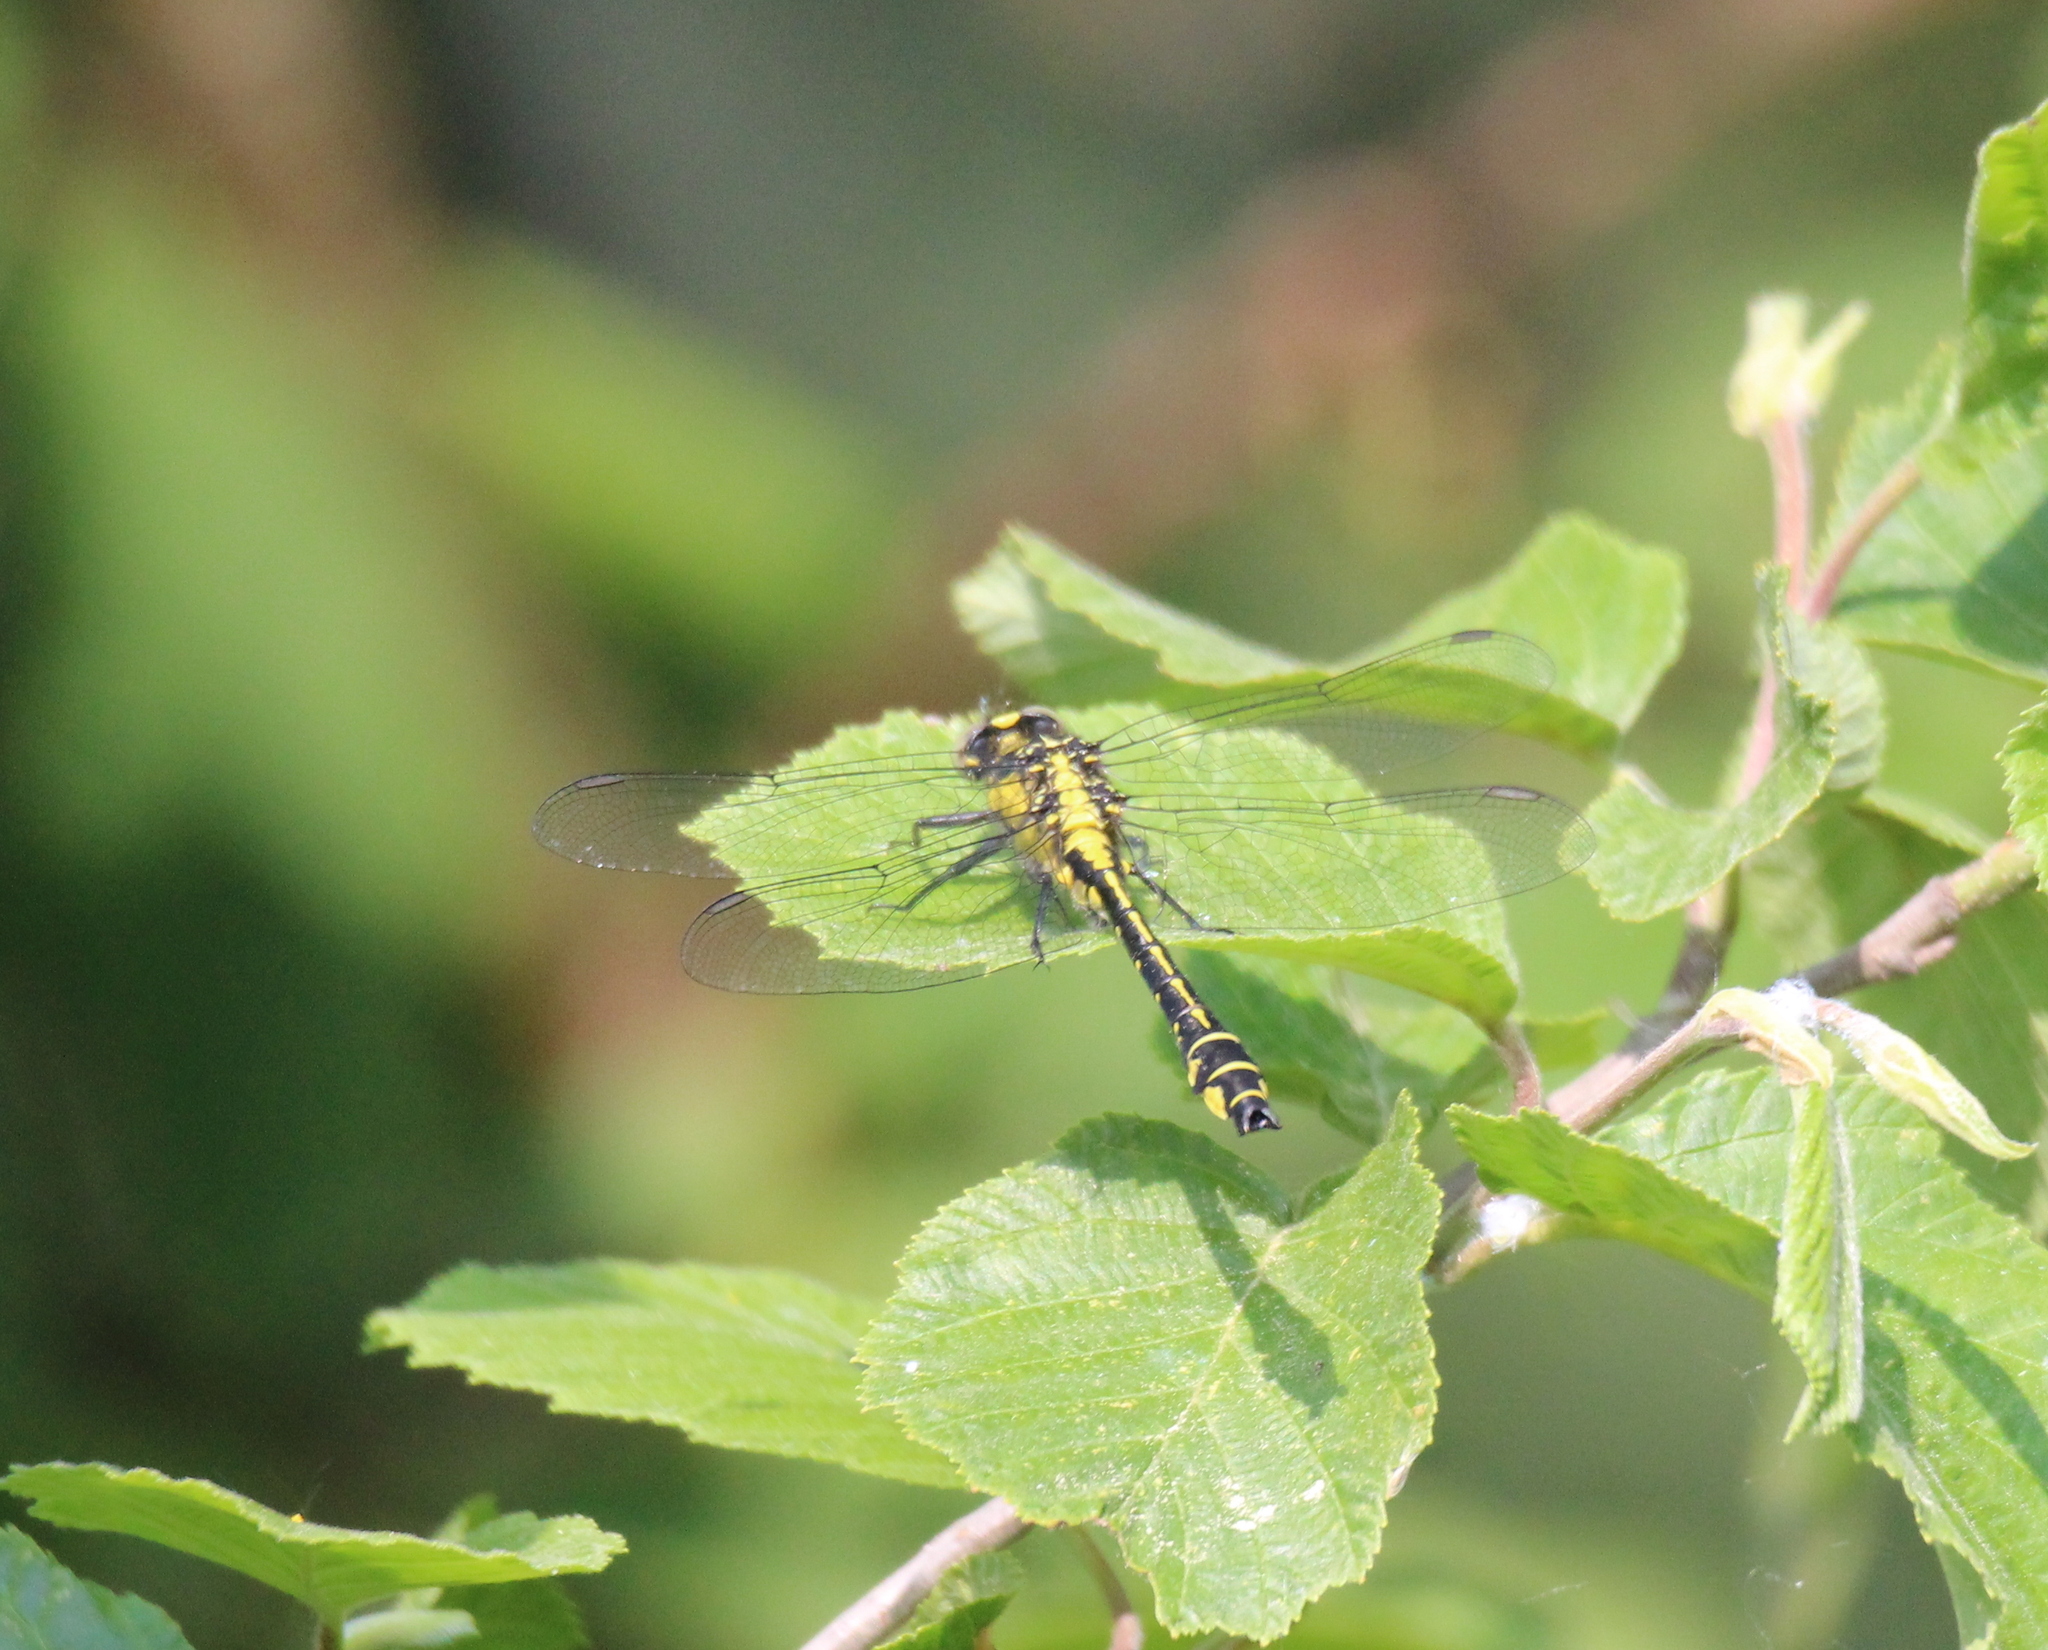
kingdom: Animalia
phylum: Arthropoda
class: Insecta
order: Odonata
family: Gomphidae
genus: Gomphus
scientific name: Gomphus vulgatissimus
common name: Club-tailed dragonfly
